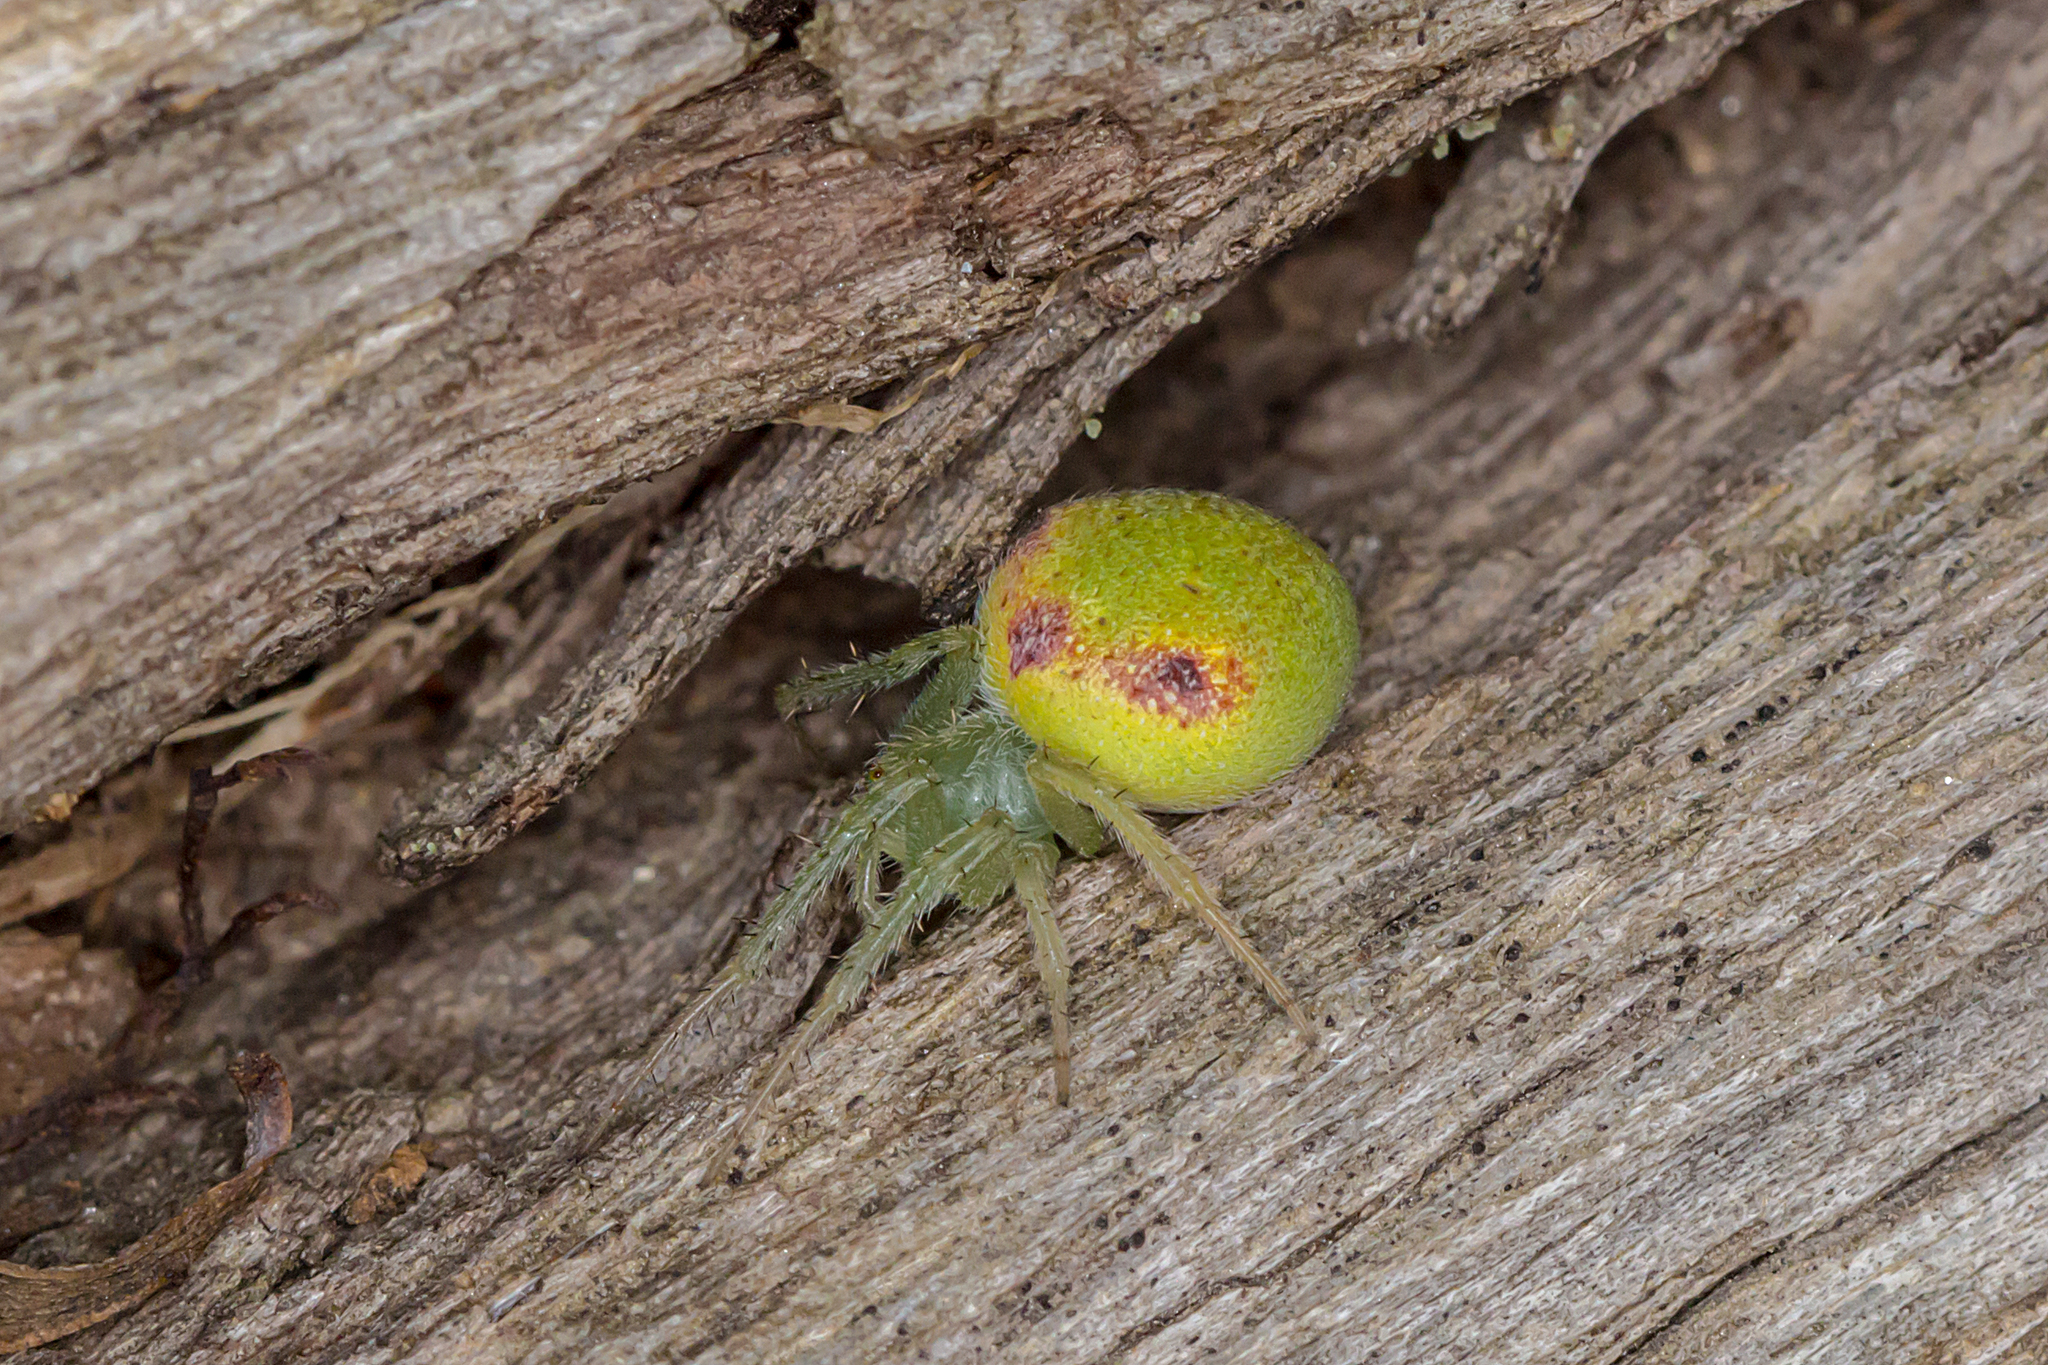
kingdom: Animalia
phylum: Arthropoda
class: Arachnida
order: Araneae
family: Araneidae
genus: Araneus
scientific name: Araneus circulissparsus
